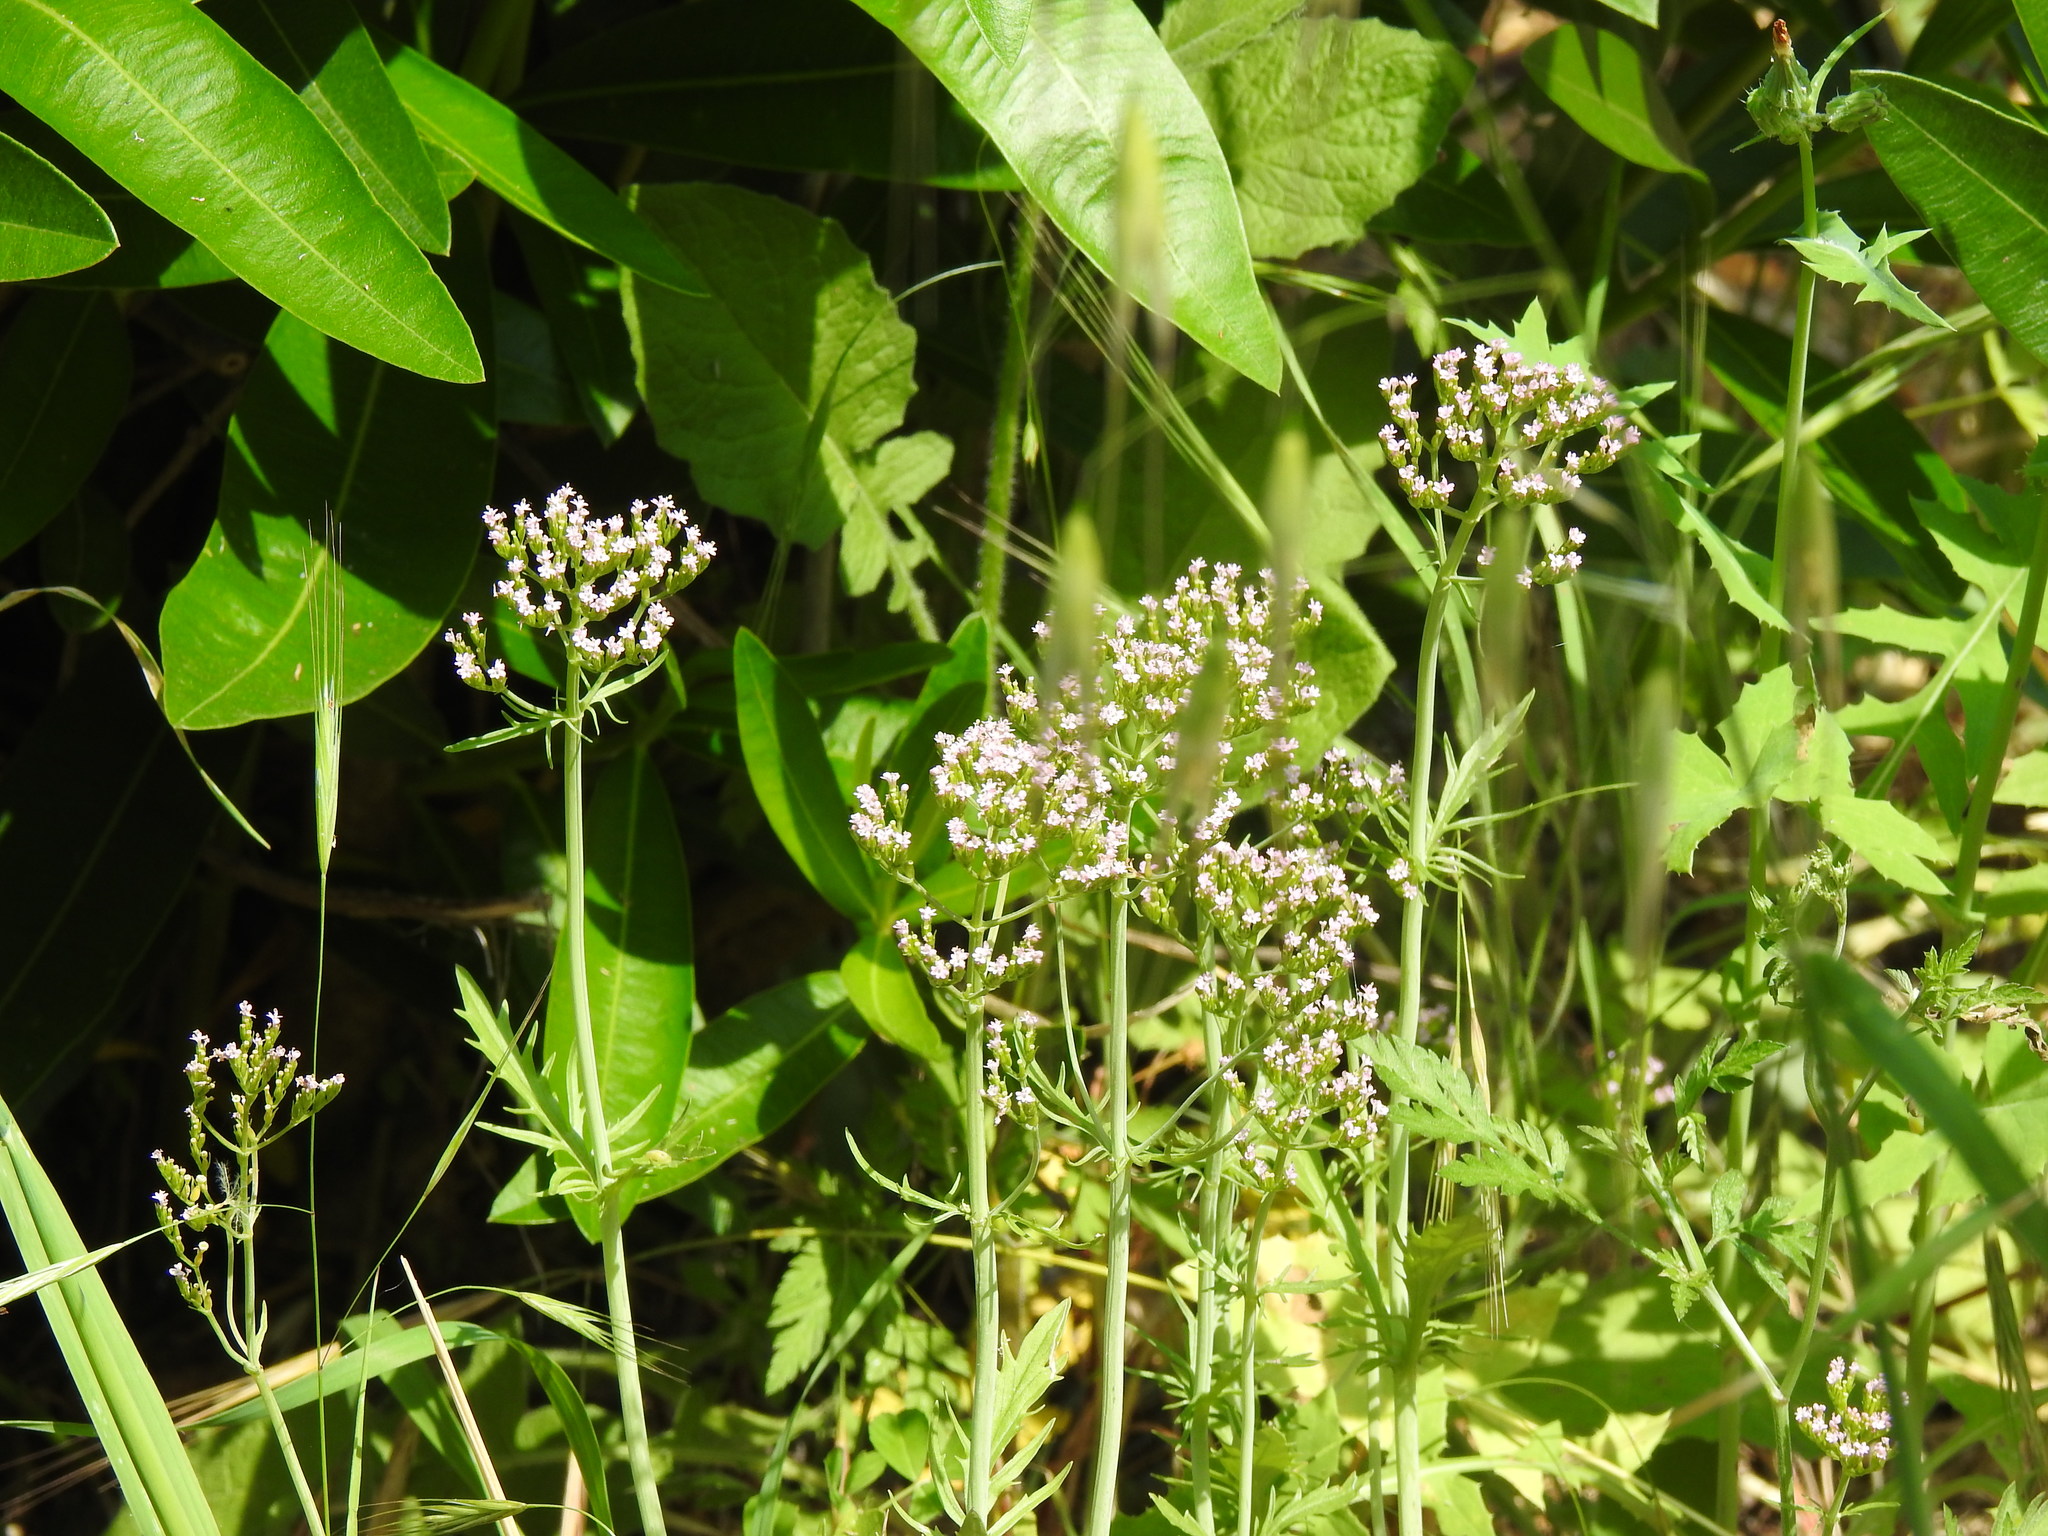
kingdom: Plantae
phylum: Tracheophyta
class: Magnoliopsida
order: Dipsacales
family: Caprifoliaceae
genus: Centranthus
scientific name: Centranthus calcitrapae
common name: Annual valerian
